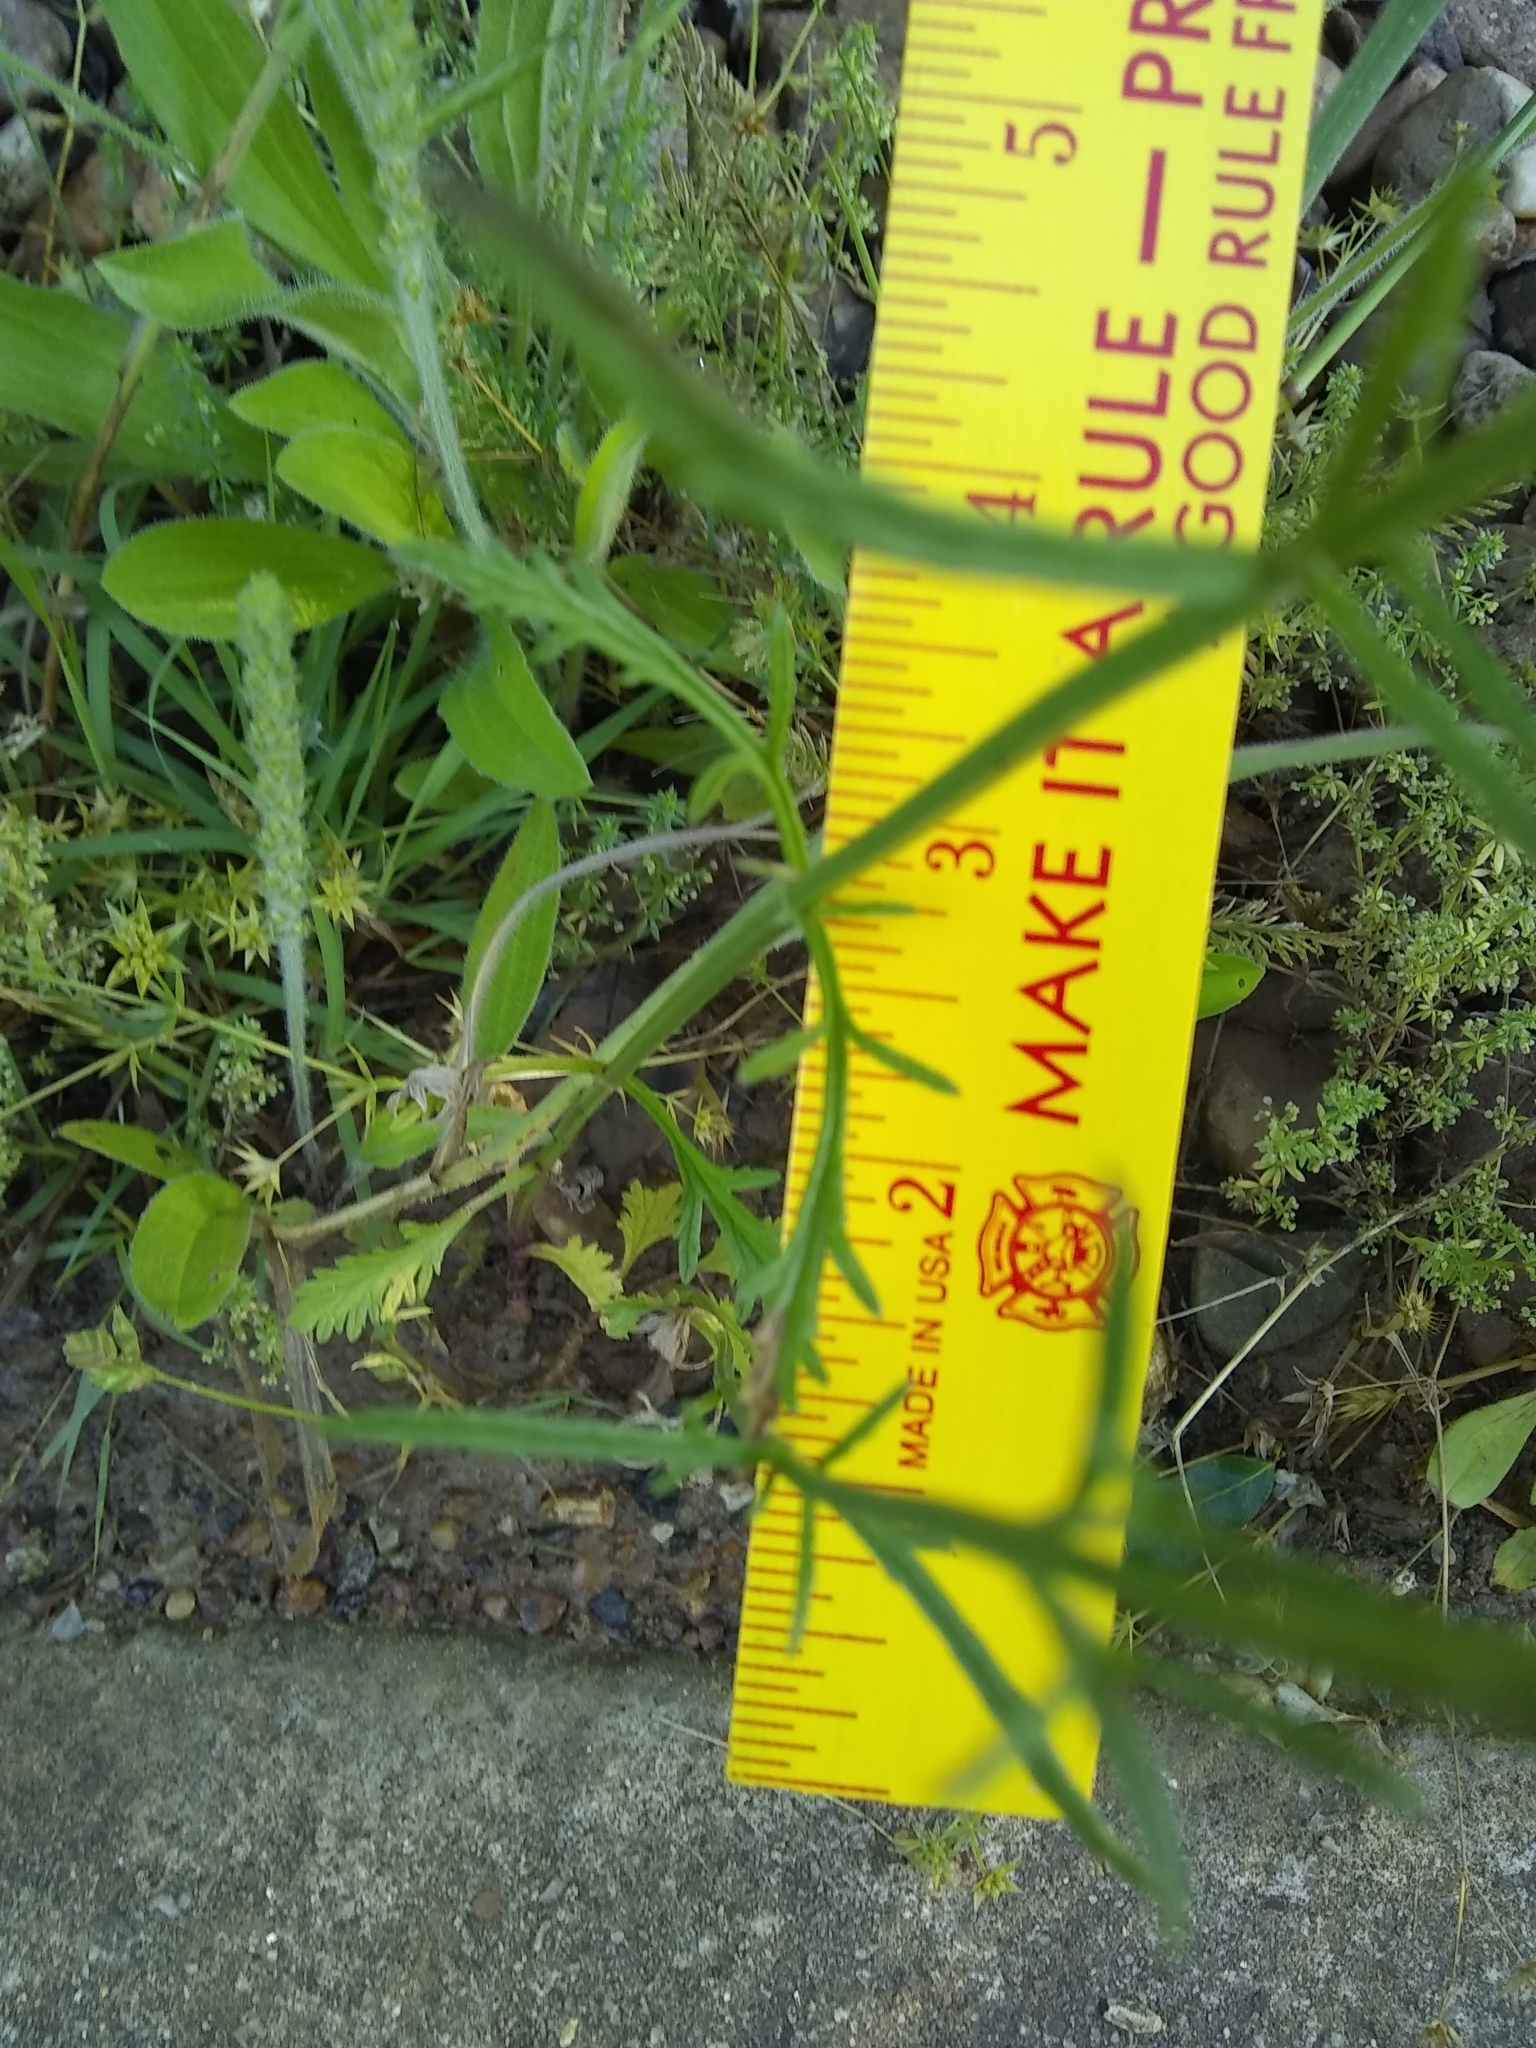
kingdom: Plantae
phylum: Tracheophyta
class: Magnoliopsida
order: Lamiales
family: Verbenaceae
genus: Verbena
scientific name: Verbena halei
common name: Texas vervain
